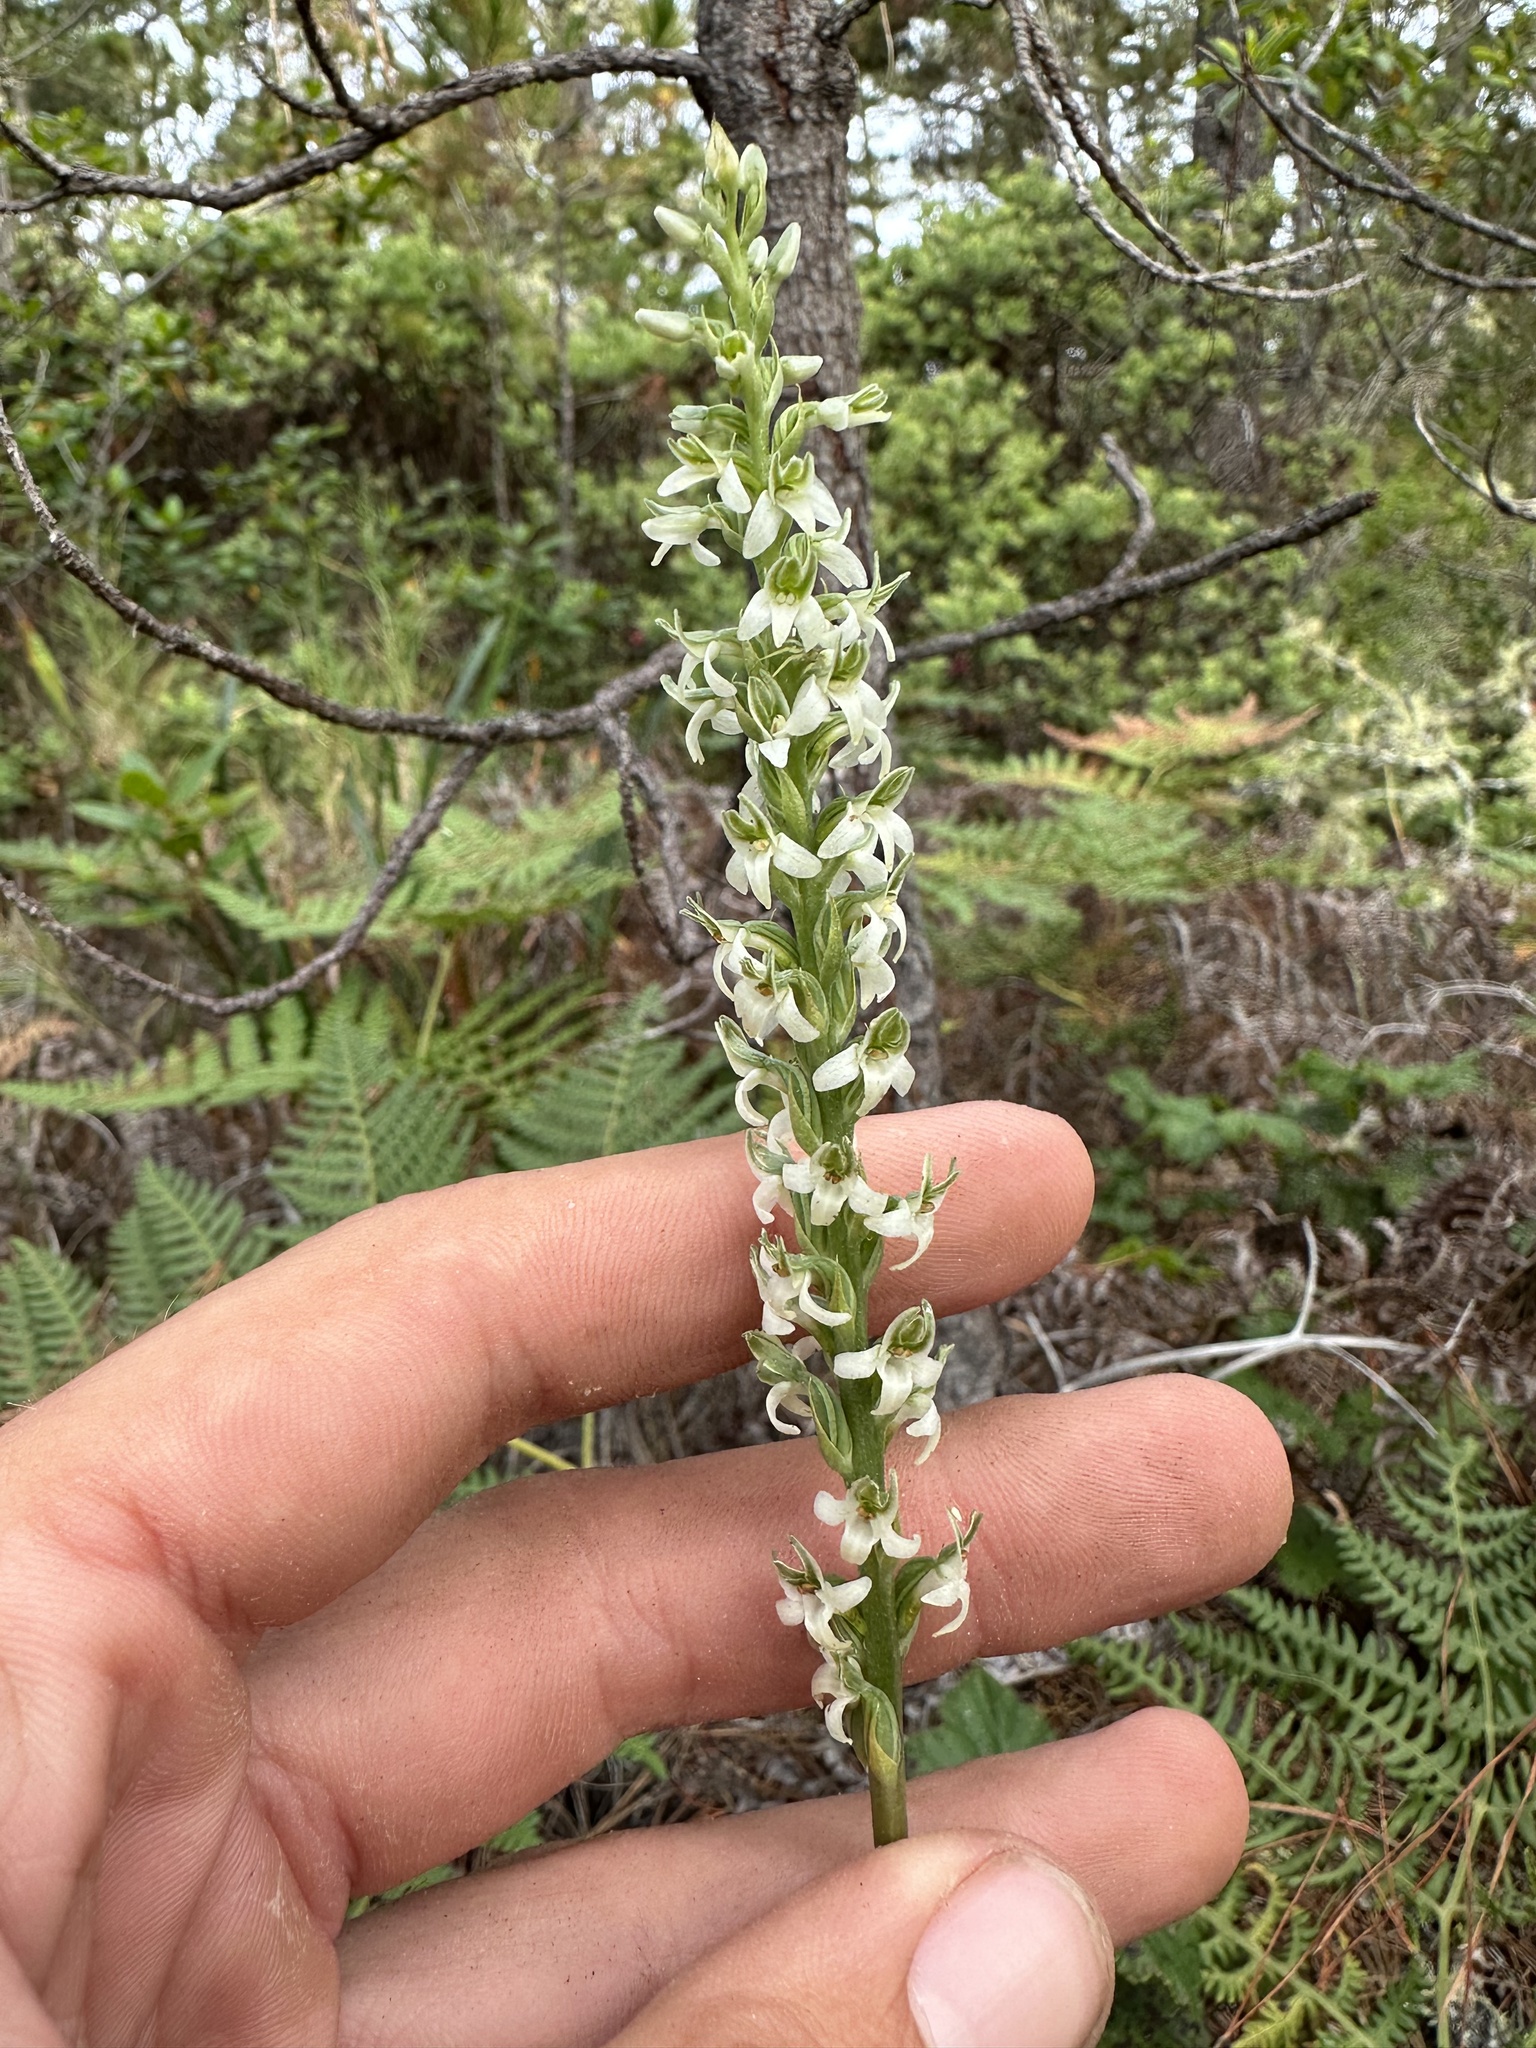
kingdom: Plantae
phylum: Tracheophyta
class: Liliopsida
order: Asparagales
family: Orchidaceae
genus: Platanthera
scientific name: Platanthera yadonii
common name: Yadon’s piperia
